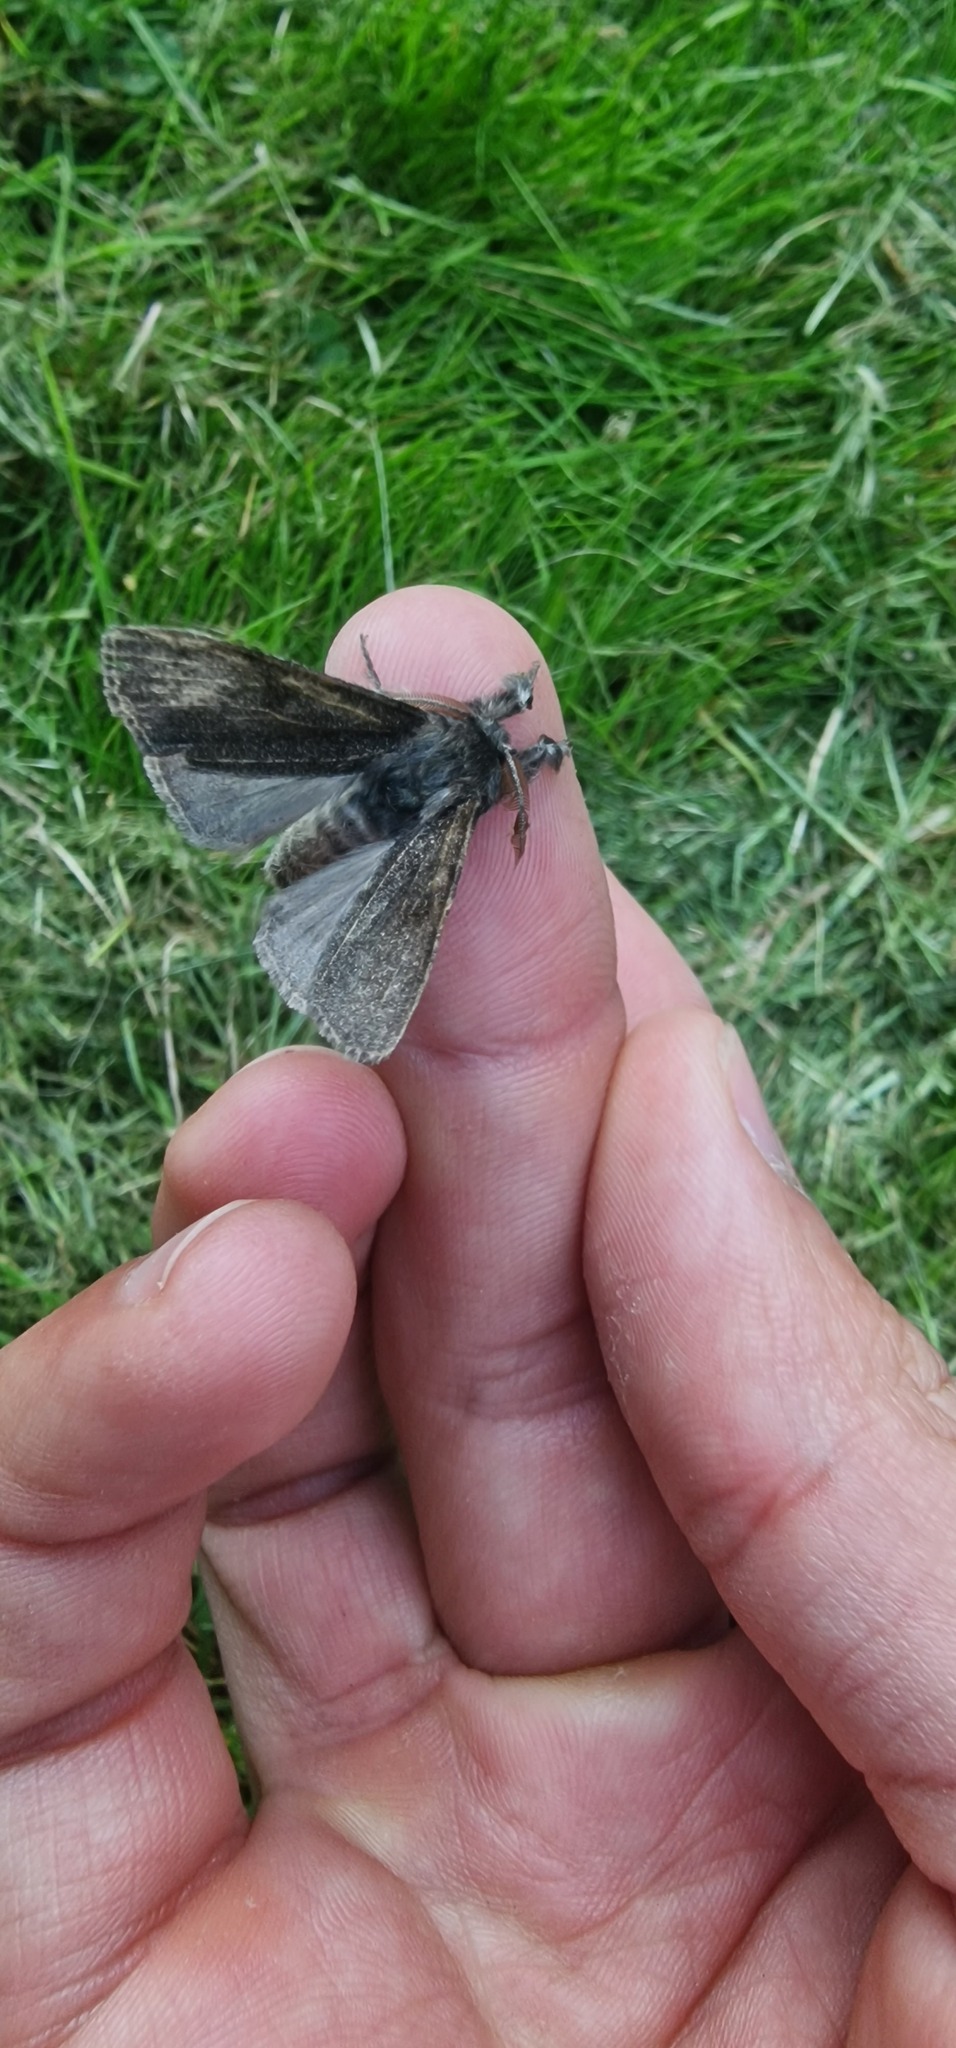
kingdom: Animalia
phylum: Arthropoda
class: Insecta
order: Lepidoptera
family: Erebidae
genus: Calliteara
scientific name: Calliteara pudibunda
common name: Pale tussock
